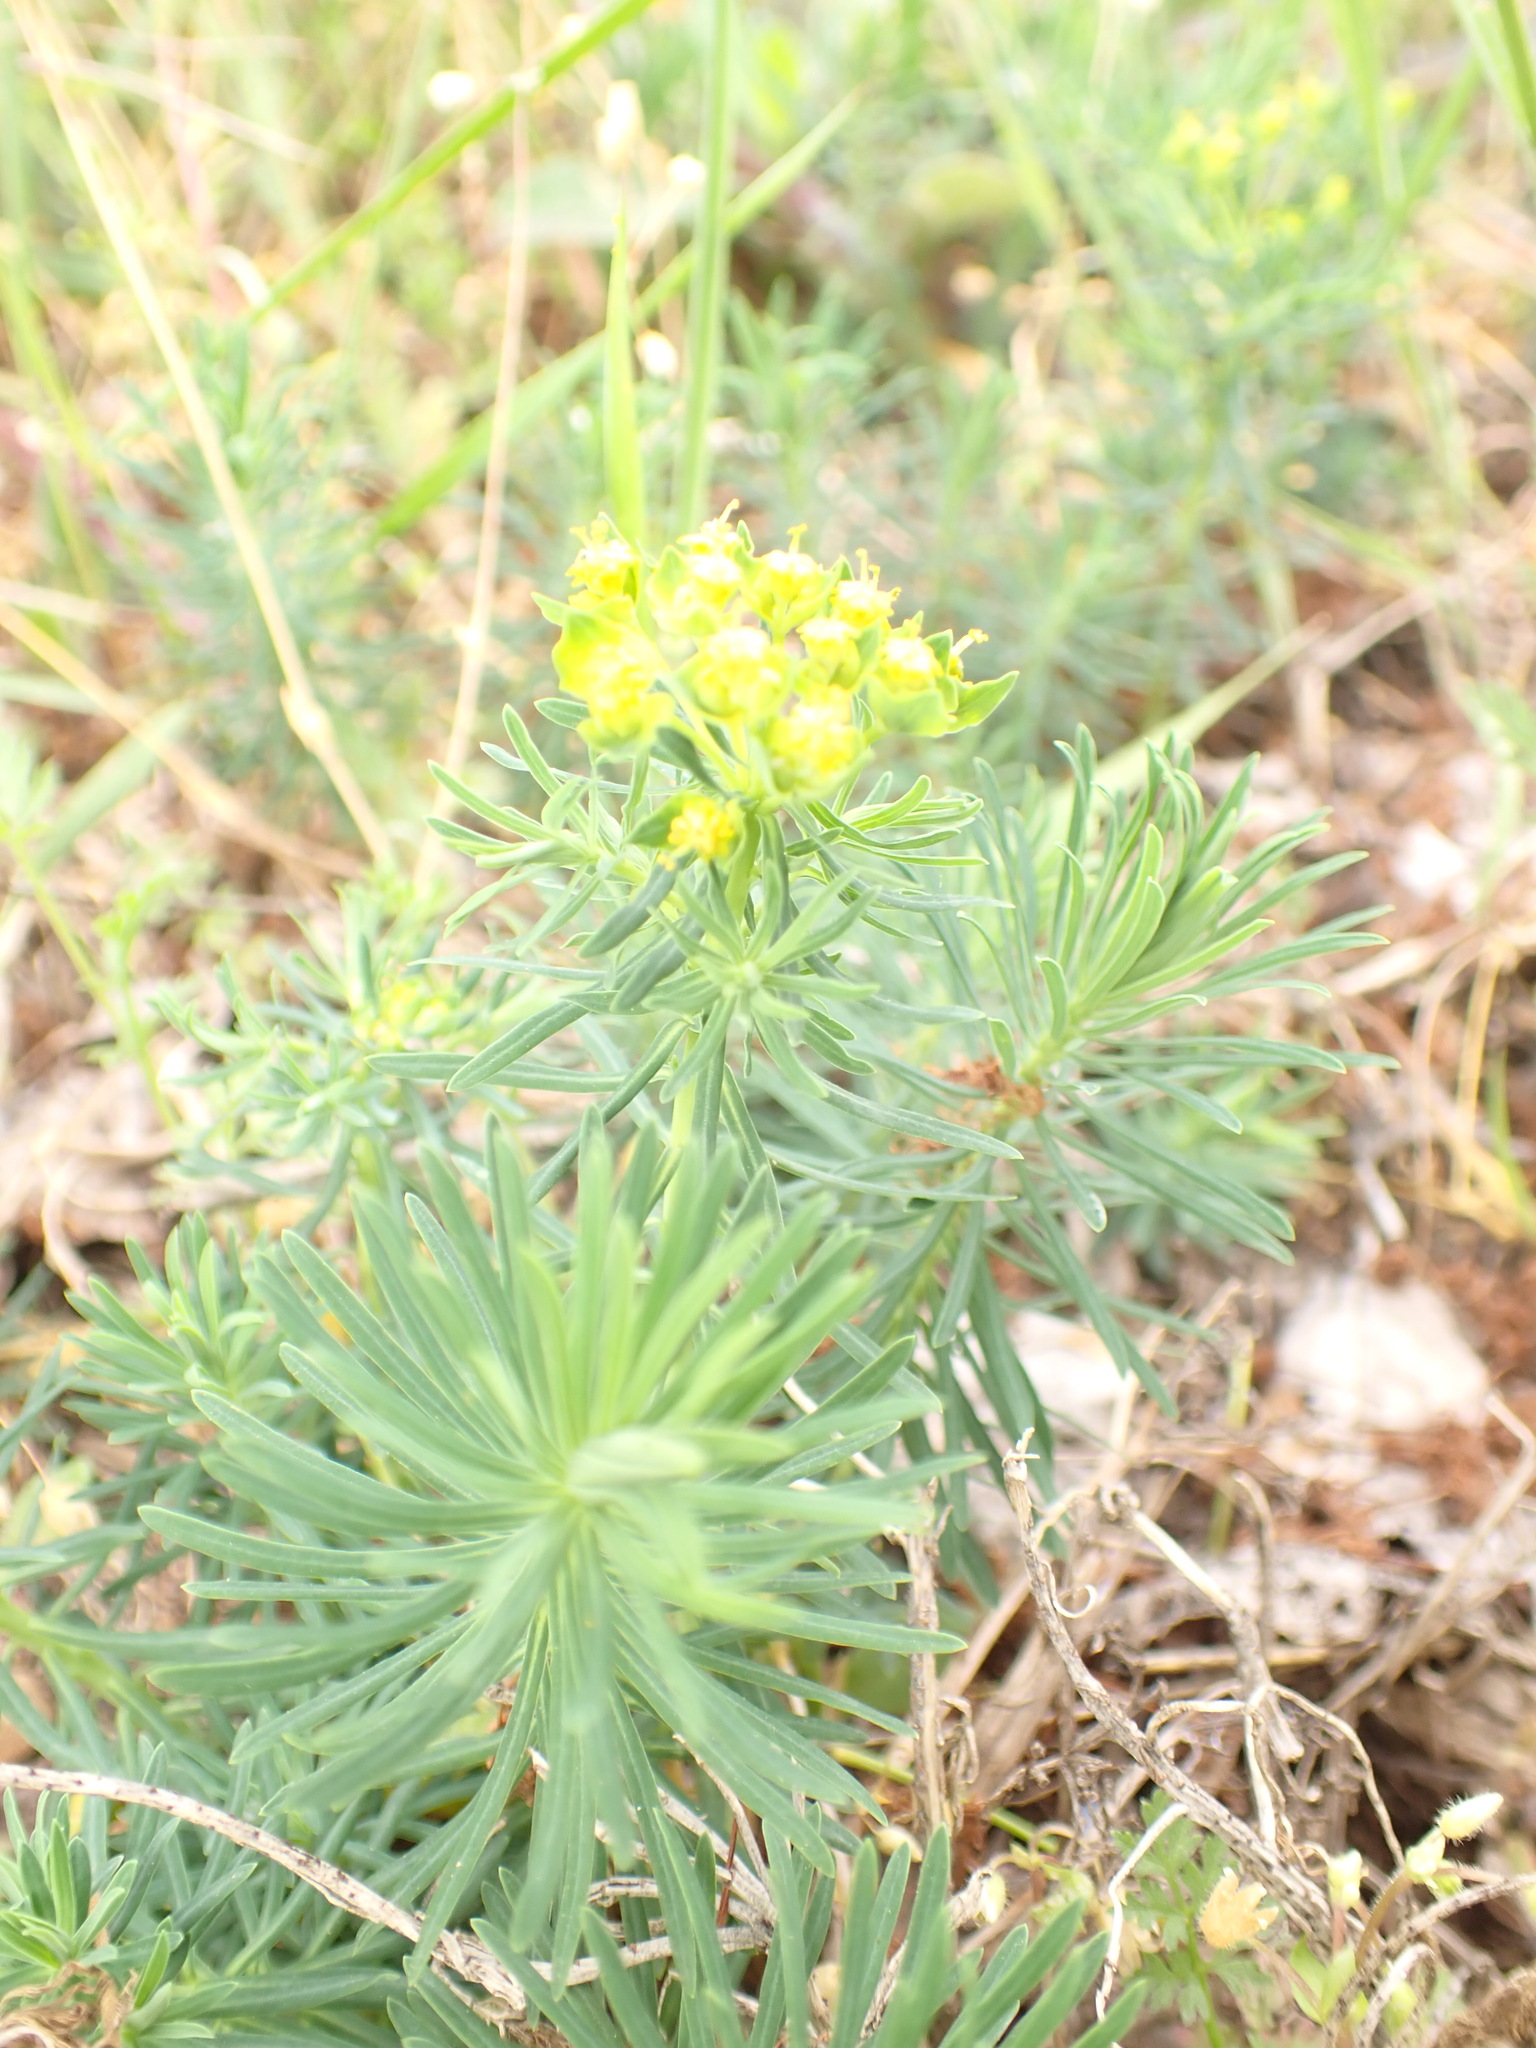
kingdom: Plantae
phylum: Tracheophyta
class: Magnoliopsida
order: Malpighiales
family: Euphorbiaceae
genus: Euphorbia
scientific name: Euphorbia cyparissias
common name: Cypress spurge
